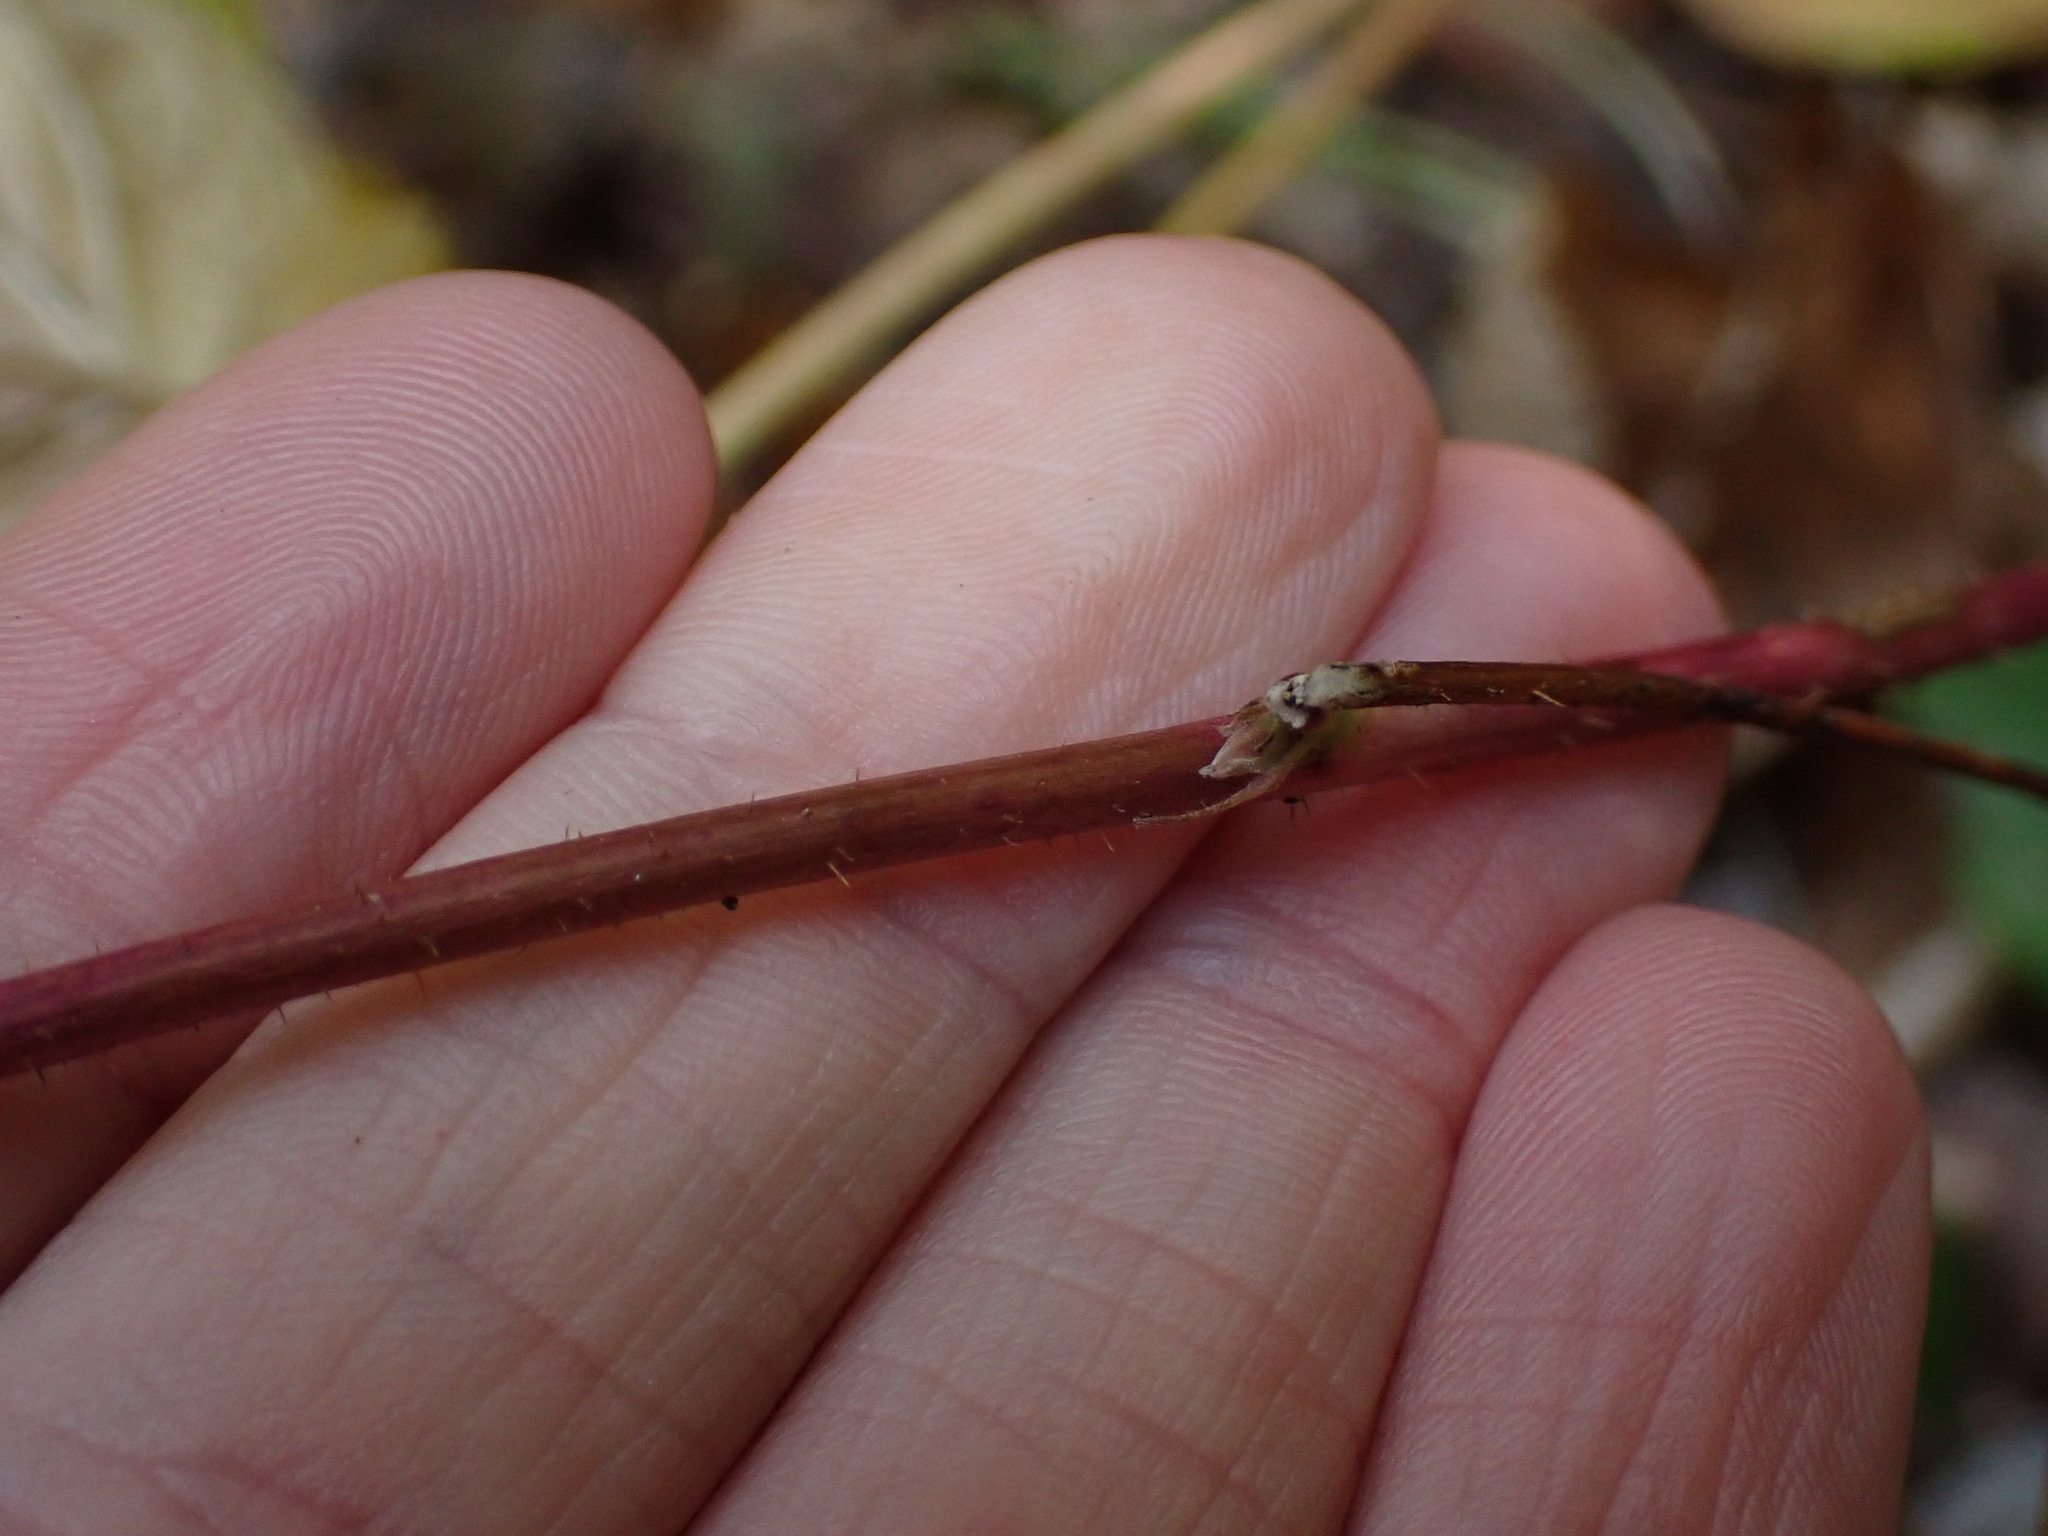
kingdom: Plantae
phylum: Tracheophyta
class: Magnoliopsida
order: Rosales
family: Rosaceae
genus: Rubus
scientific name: Rubus idaeus
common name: Raspberry
